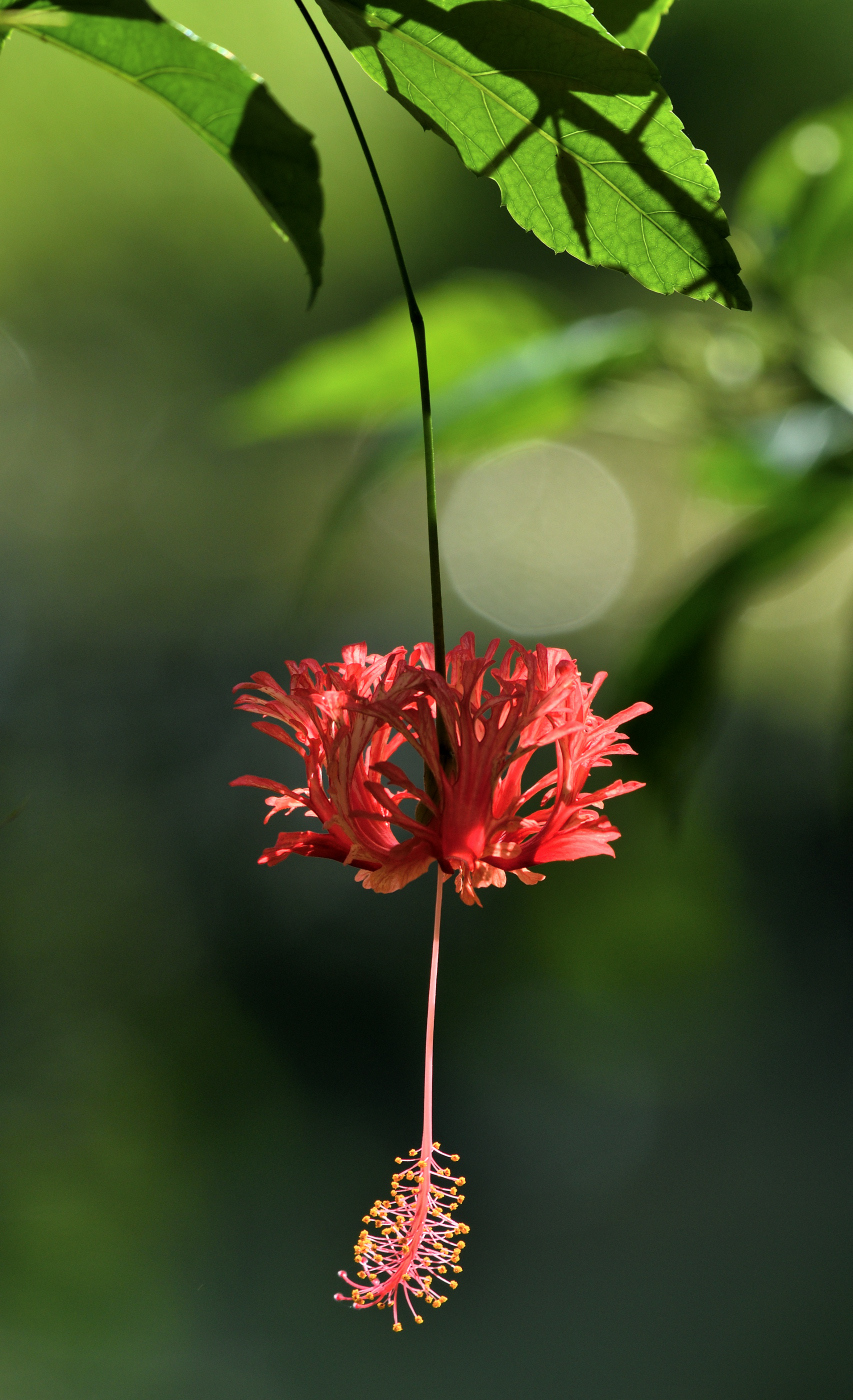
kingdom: Plantae
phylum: Tracheophyta
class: Magnoliopsida
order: Malvales
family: Malvaceae
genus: Hibiscus
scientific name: Hibiscus schizopetalus
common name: Fringed rosemallow
